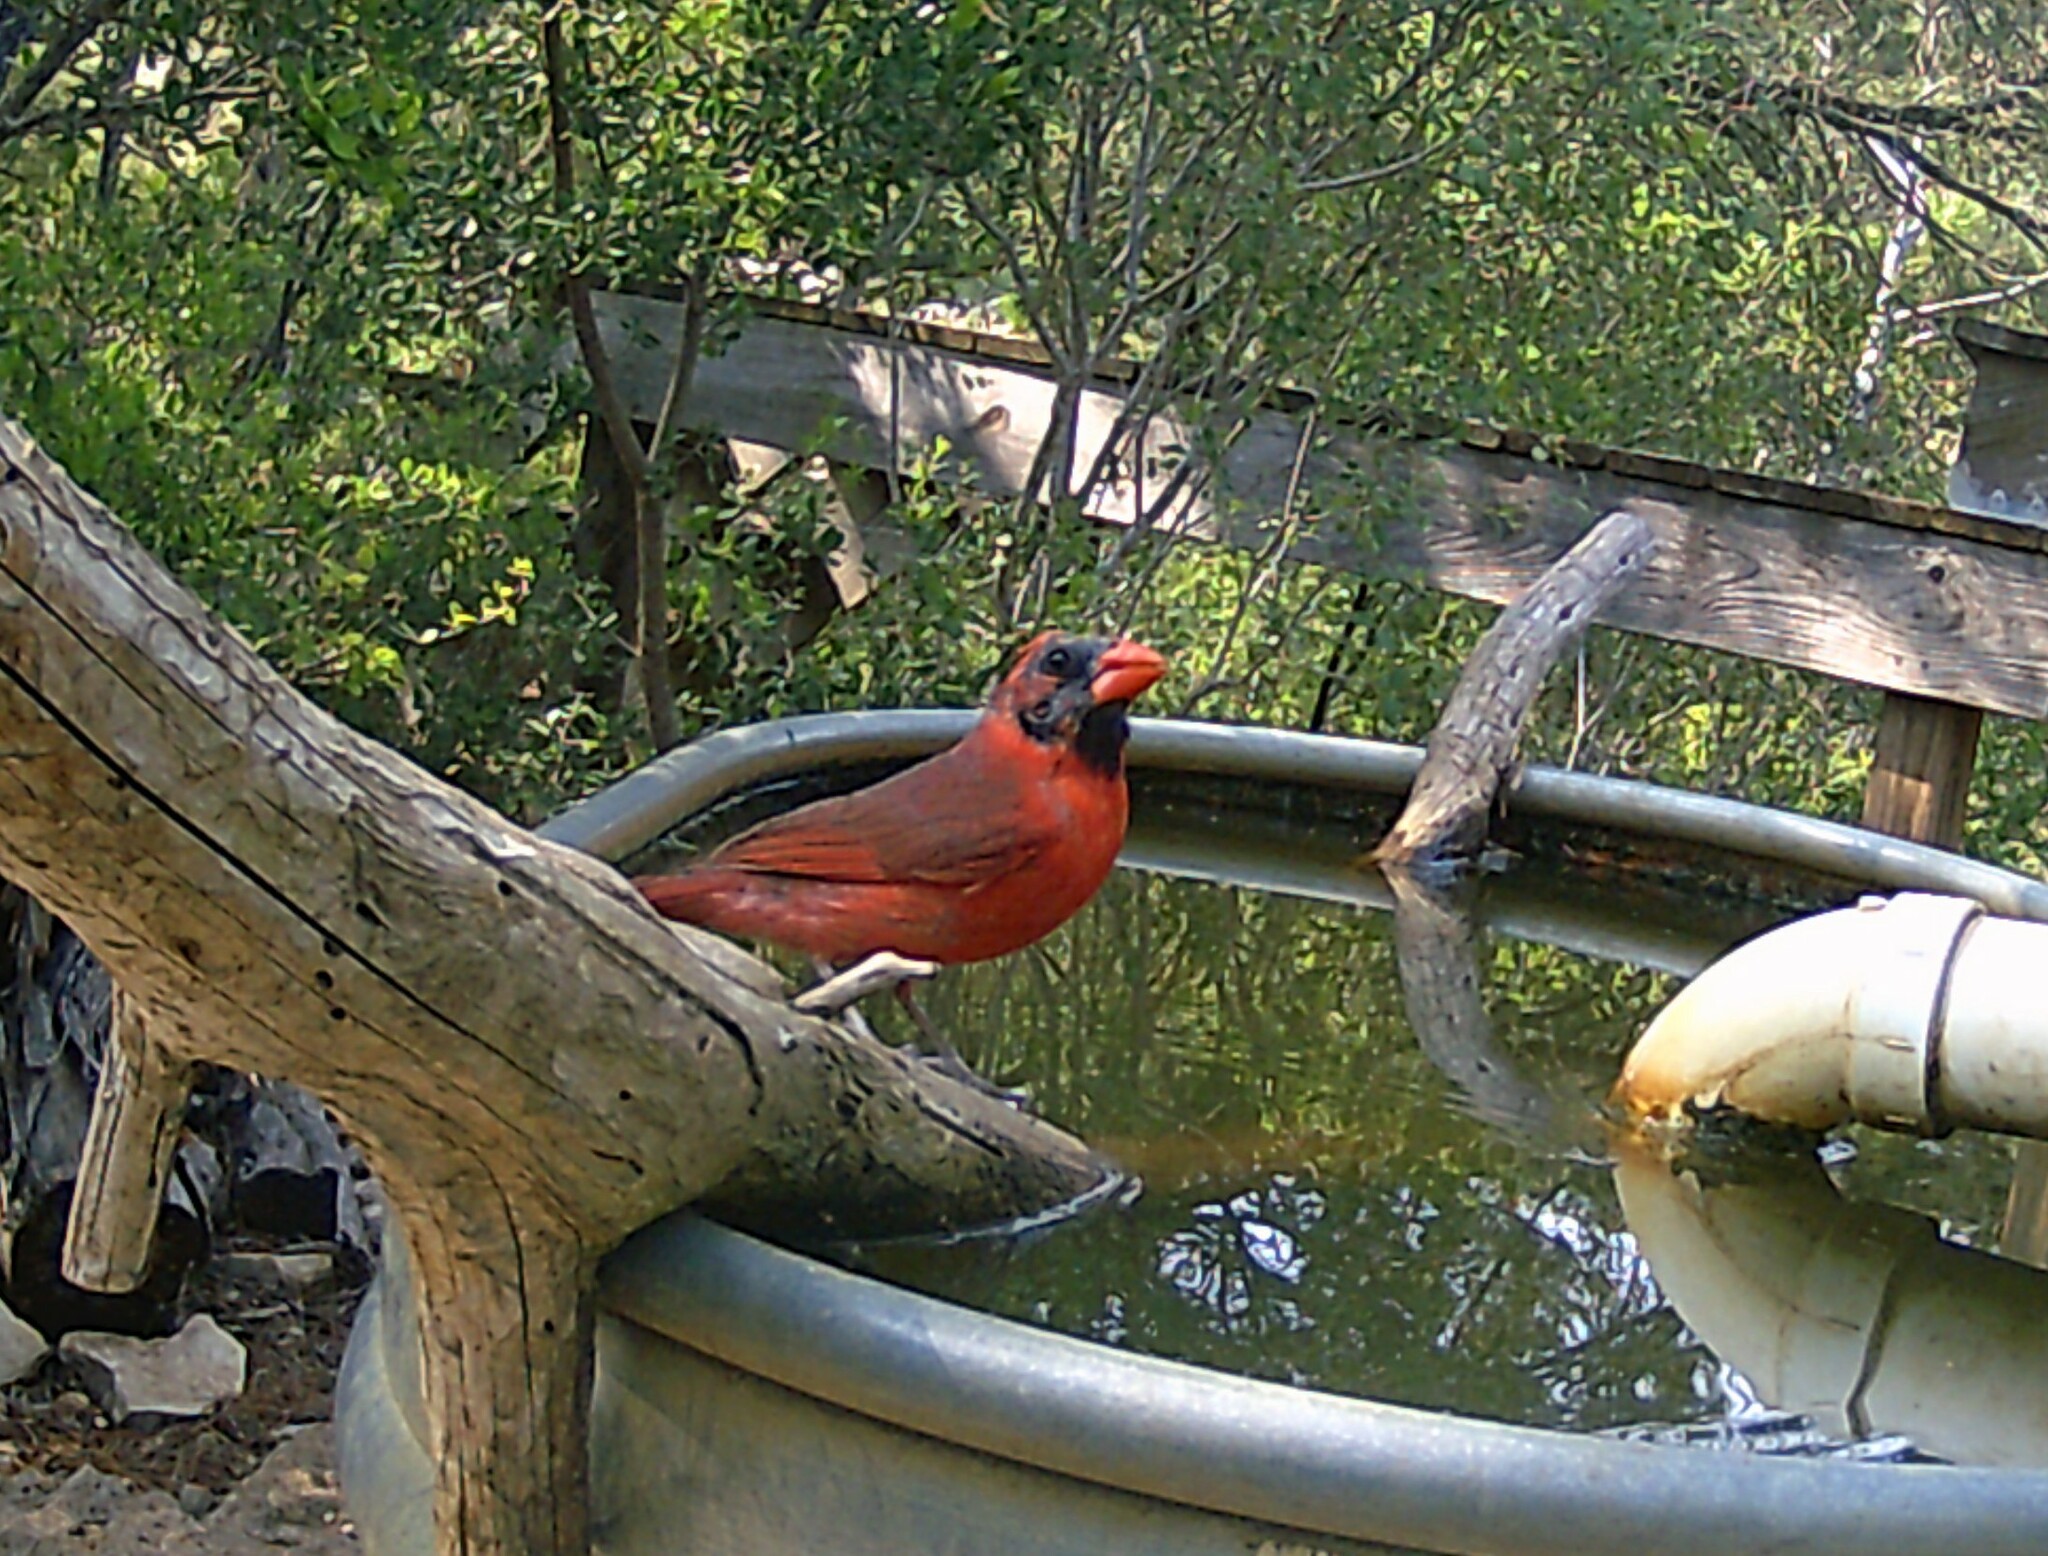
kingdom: Animalia
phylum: Chordata
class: Aves
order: Passeriformes
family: Cardinalidae
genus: Cardinalis
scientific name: Cardinalis cardinalis
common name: Northern cardinal
